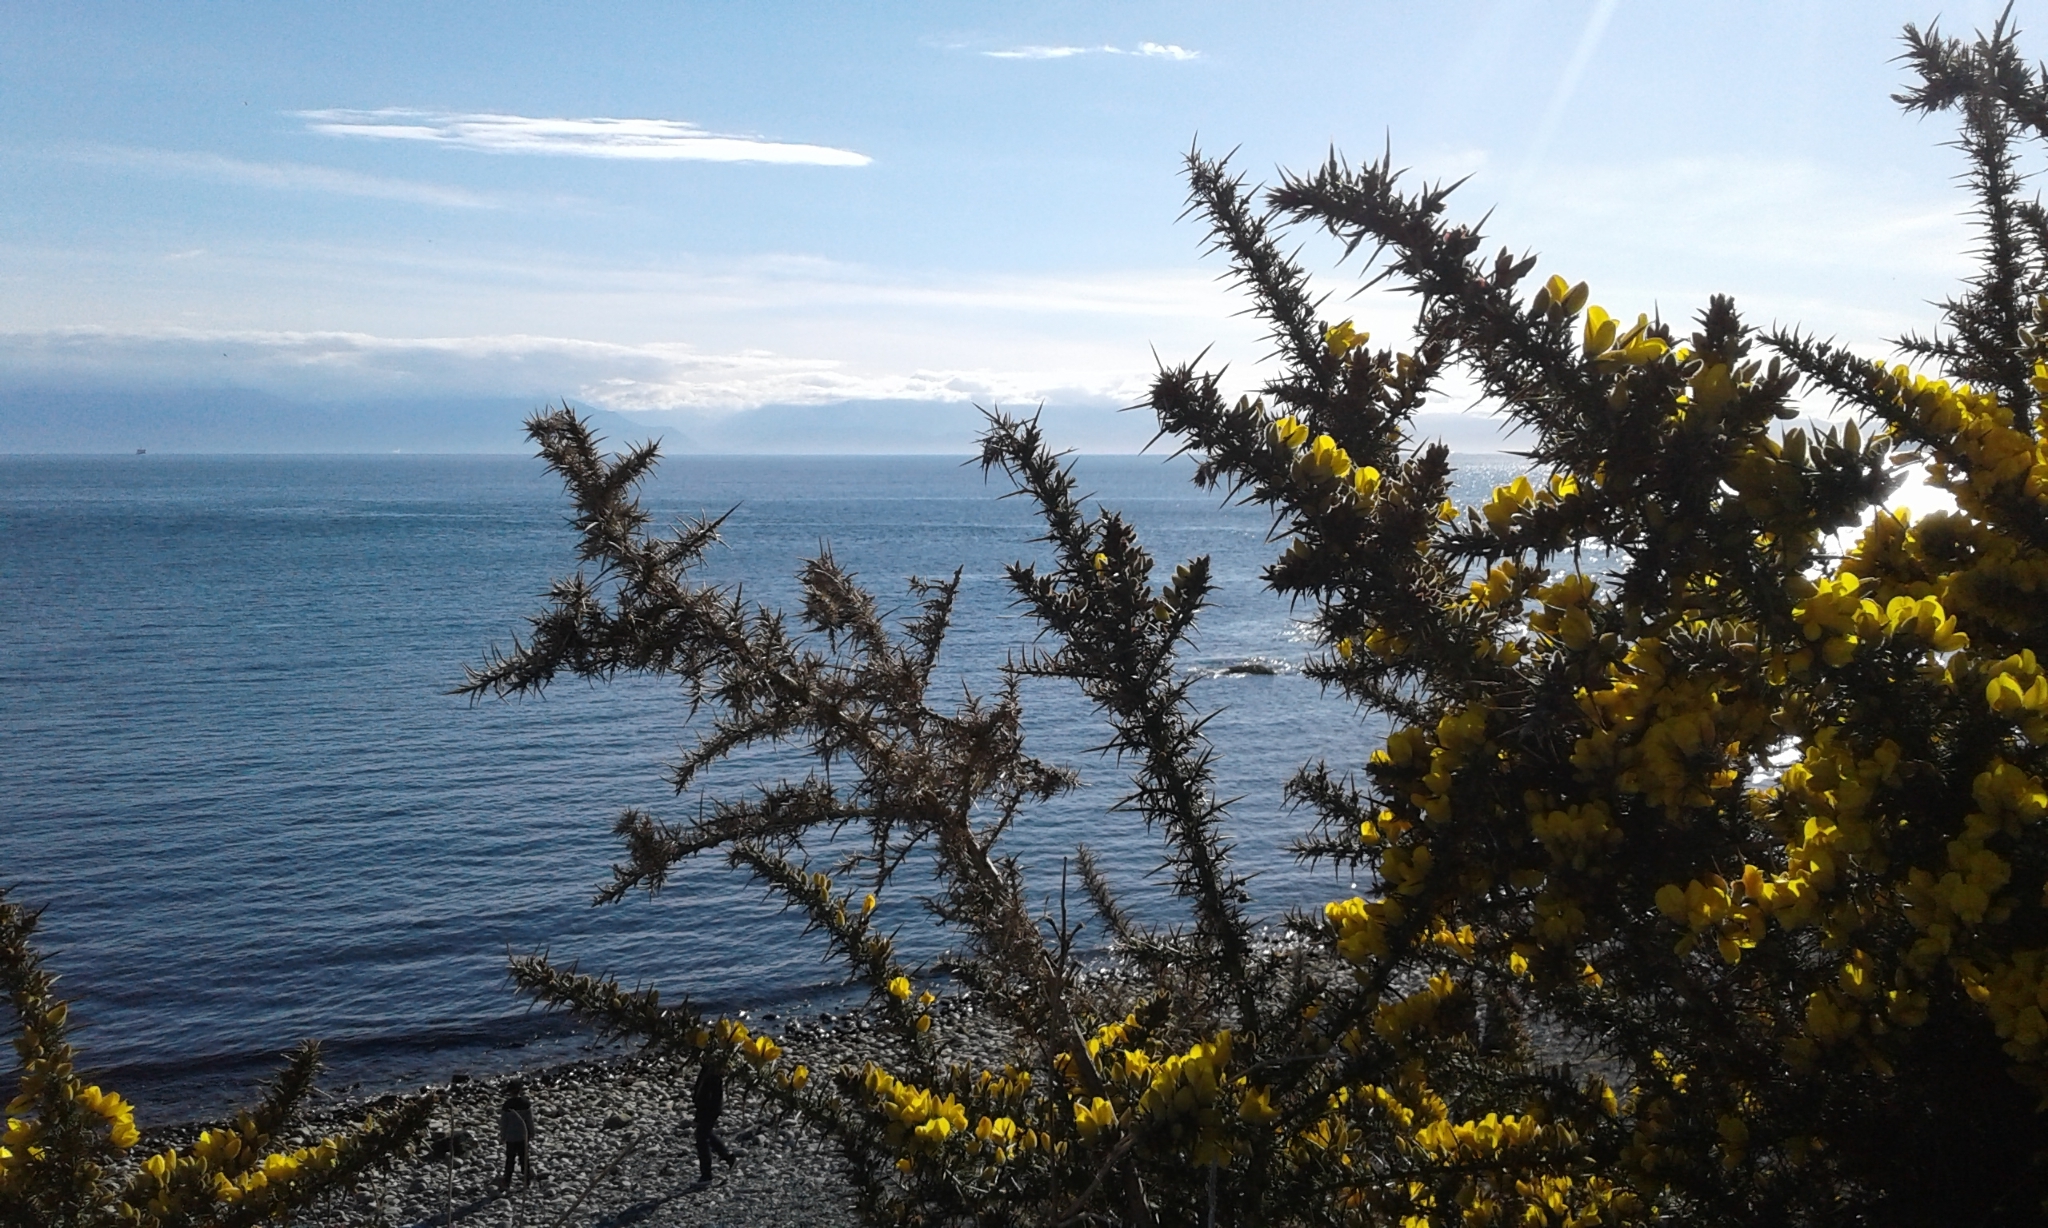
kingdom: Plantae
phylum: Tracheophyta
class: Magnoliopsida
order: Fabales
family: Fabaceae
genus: Ulex
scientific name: Ulex europaeus
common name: Common gorse
